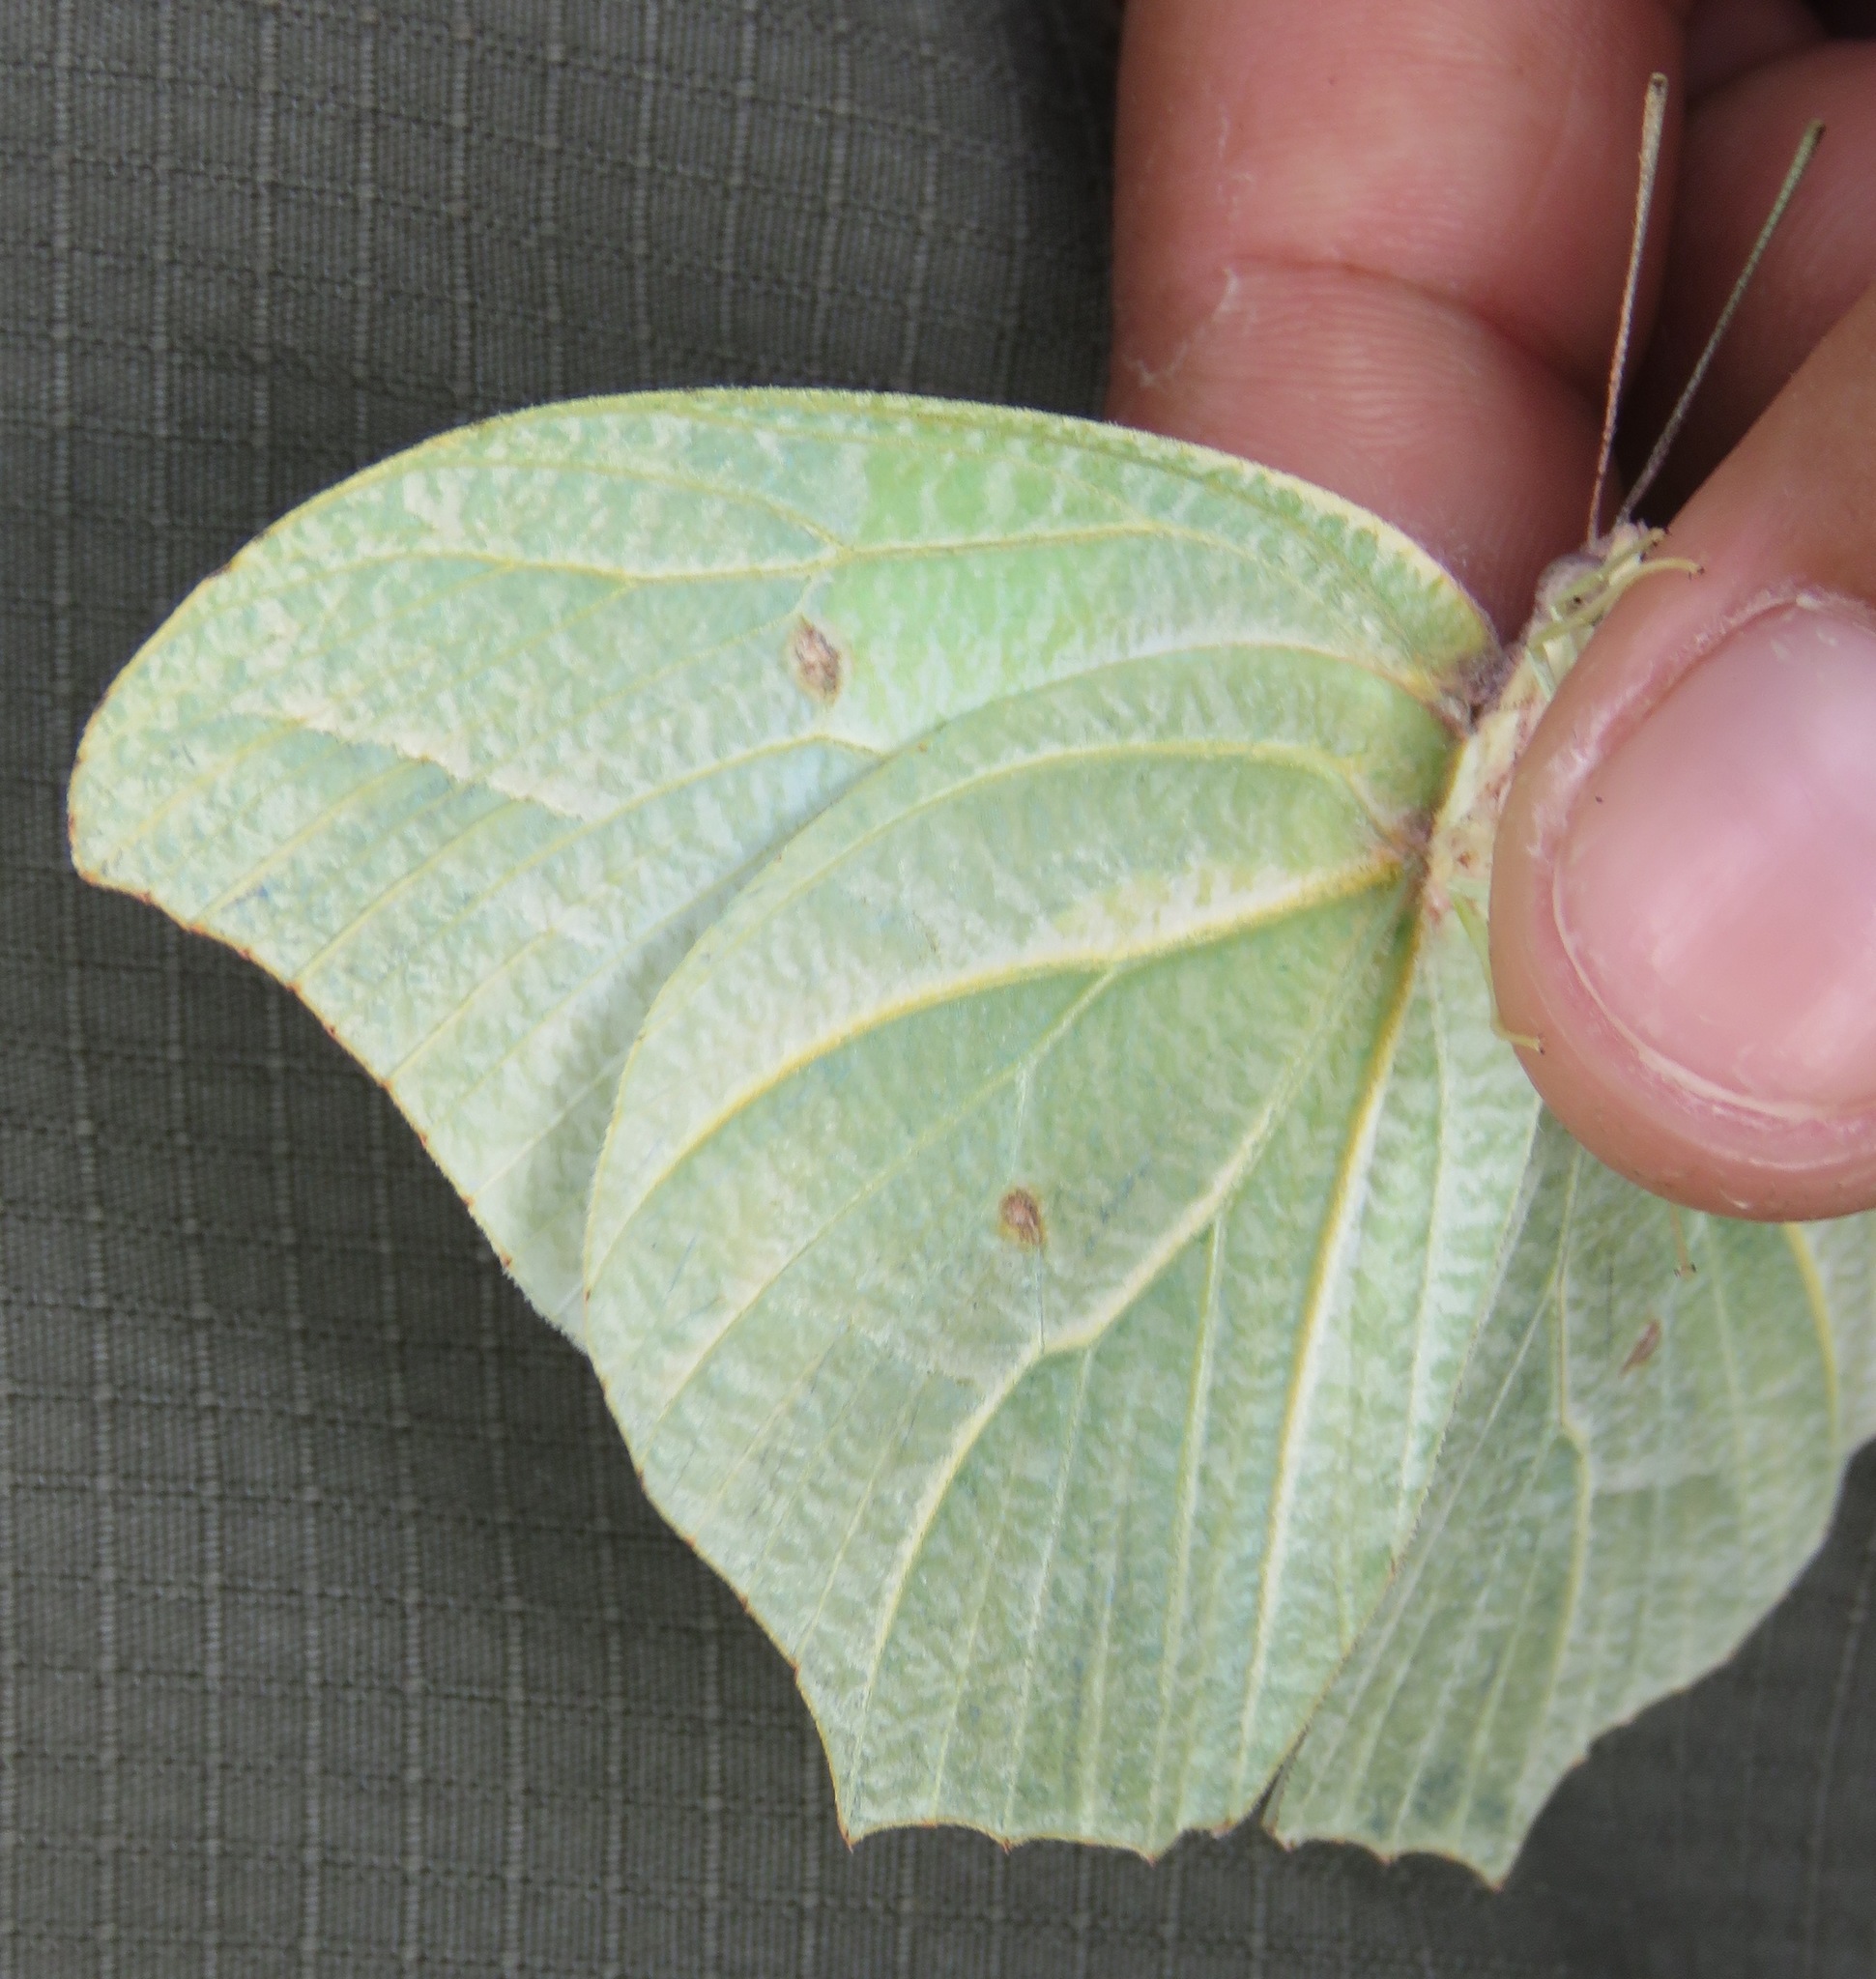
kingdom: Animalia
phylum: Arthropoda
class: Insecta
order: Lepidoptera
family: Pieridae
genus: Anteos
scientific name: Anteos clorinde
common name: White angled sulphur
